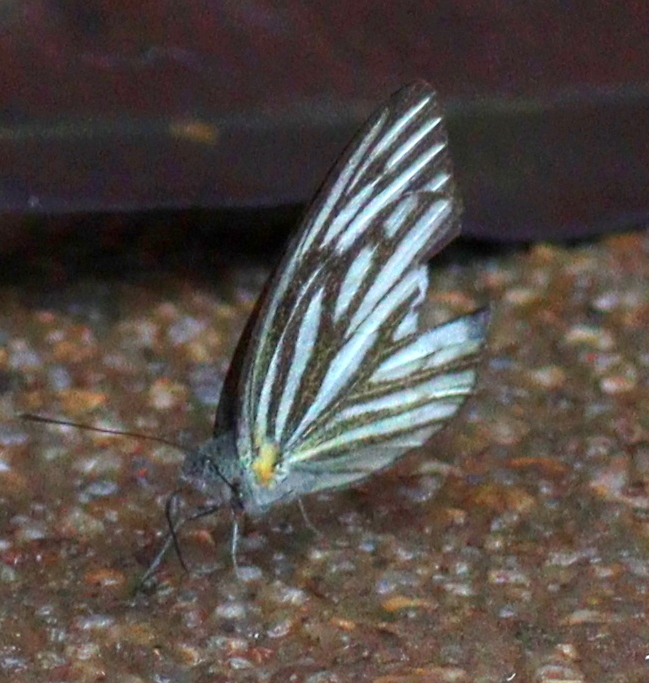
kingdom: Animalia
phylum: Arthropoda
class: Insecta
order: Lepidoptera
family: Pieridae
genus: Cepora
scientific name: Cepora nerissa
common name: Common gull
